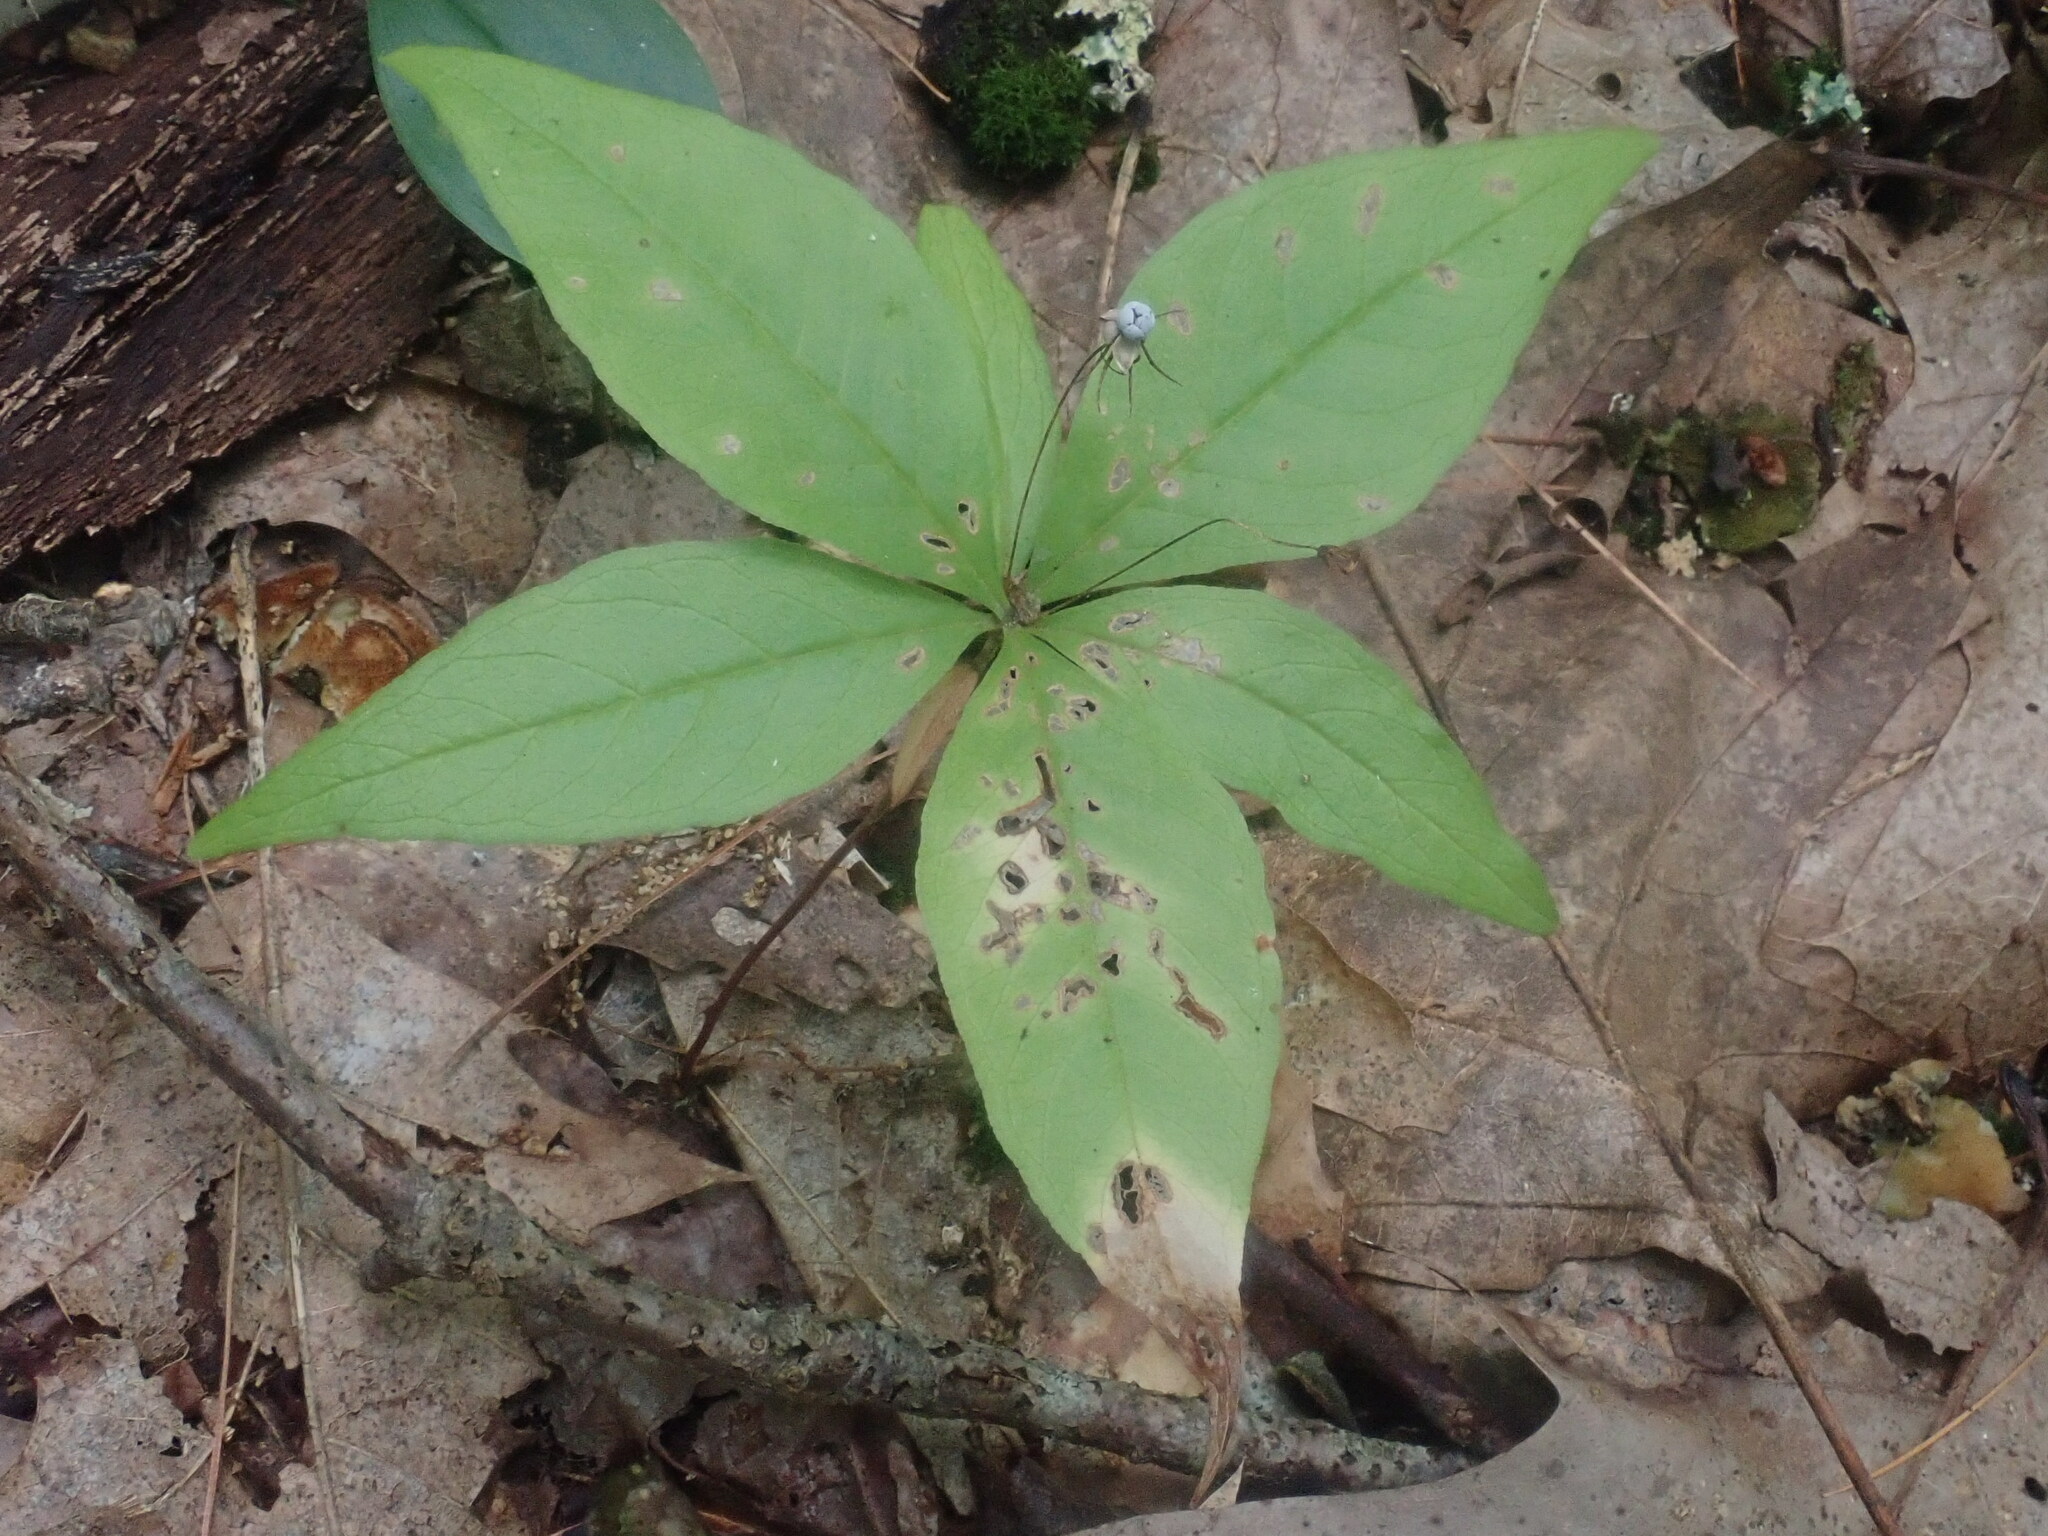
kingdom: Plantae
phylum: Tracheophyta
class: Magnoliopsida
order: Ericales
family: Primulaceae
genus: Lysimachia
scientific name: Lysimachia borealis
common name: American starflower
